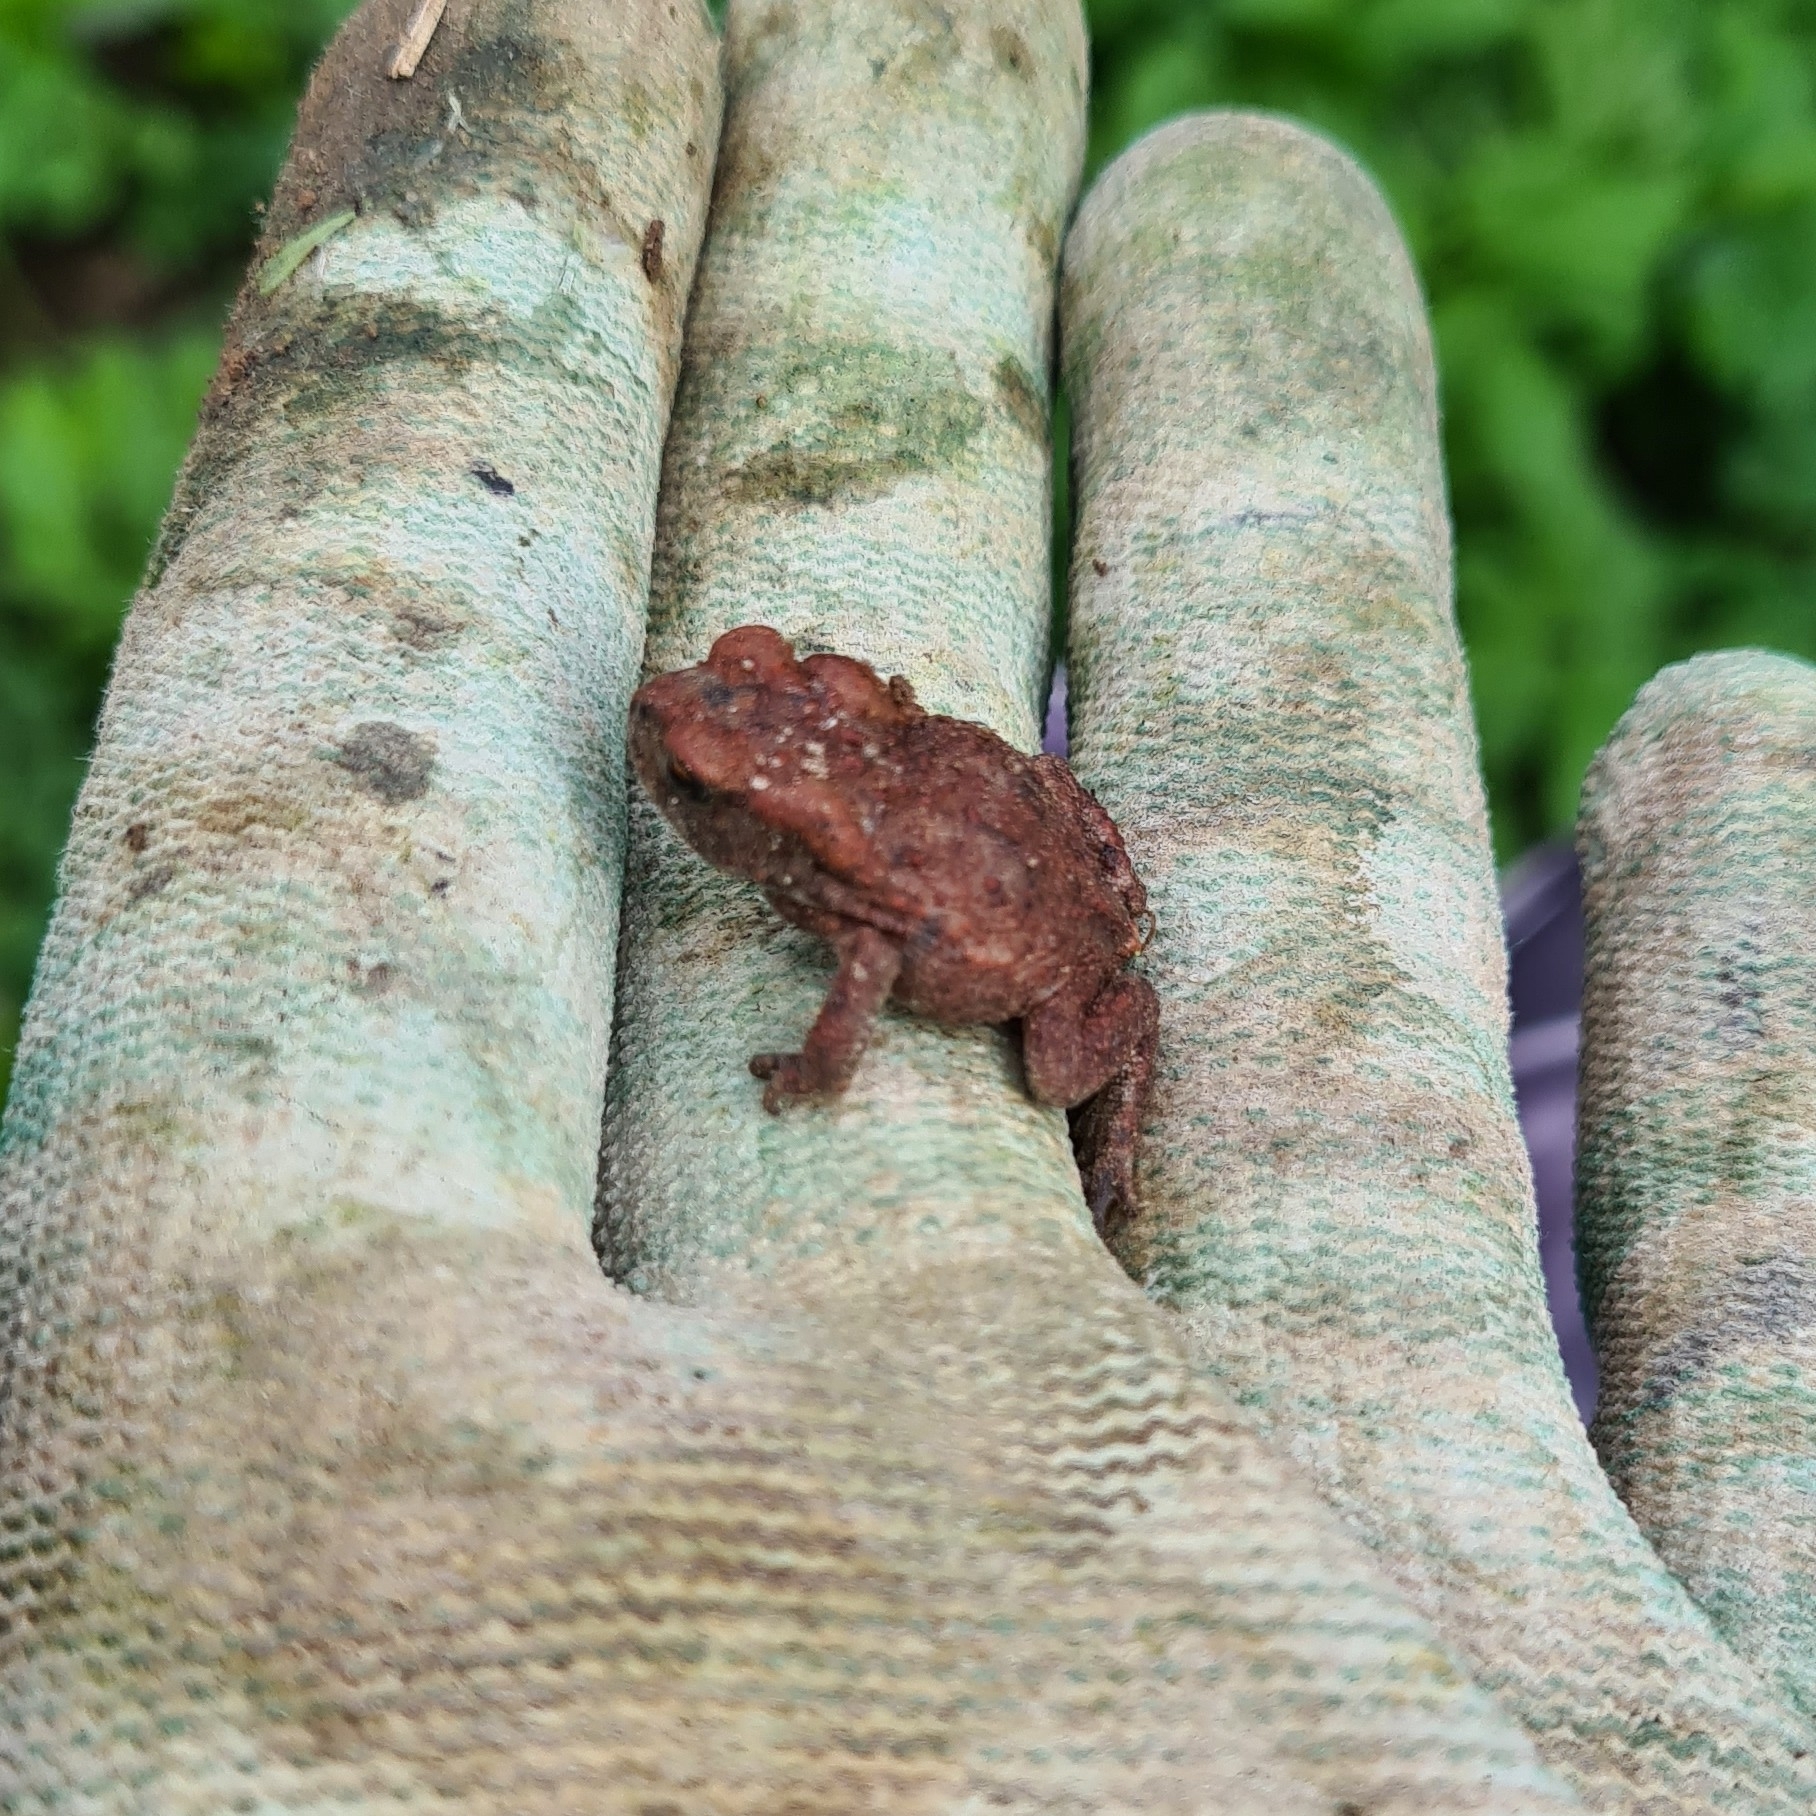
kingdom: Animalia
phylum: Chordata
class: Amphibia
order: Anura
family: Bufonidae
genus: Bufo
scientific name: Bufo bufo
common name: Common toad
